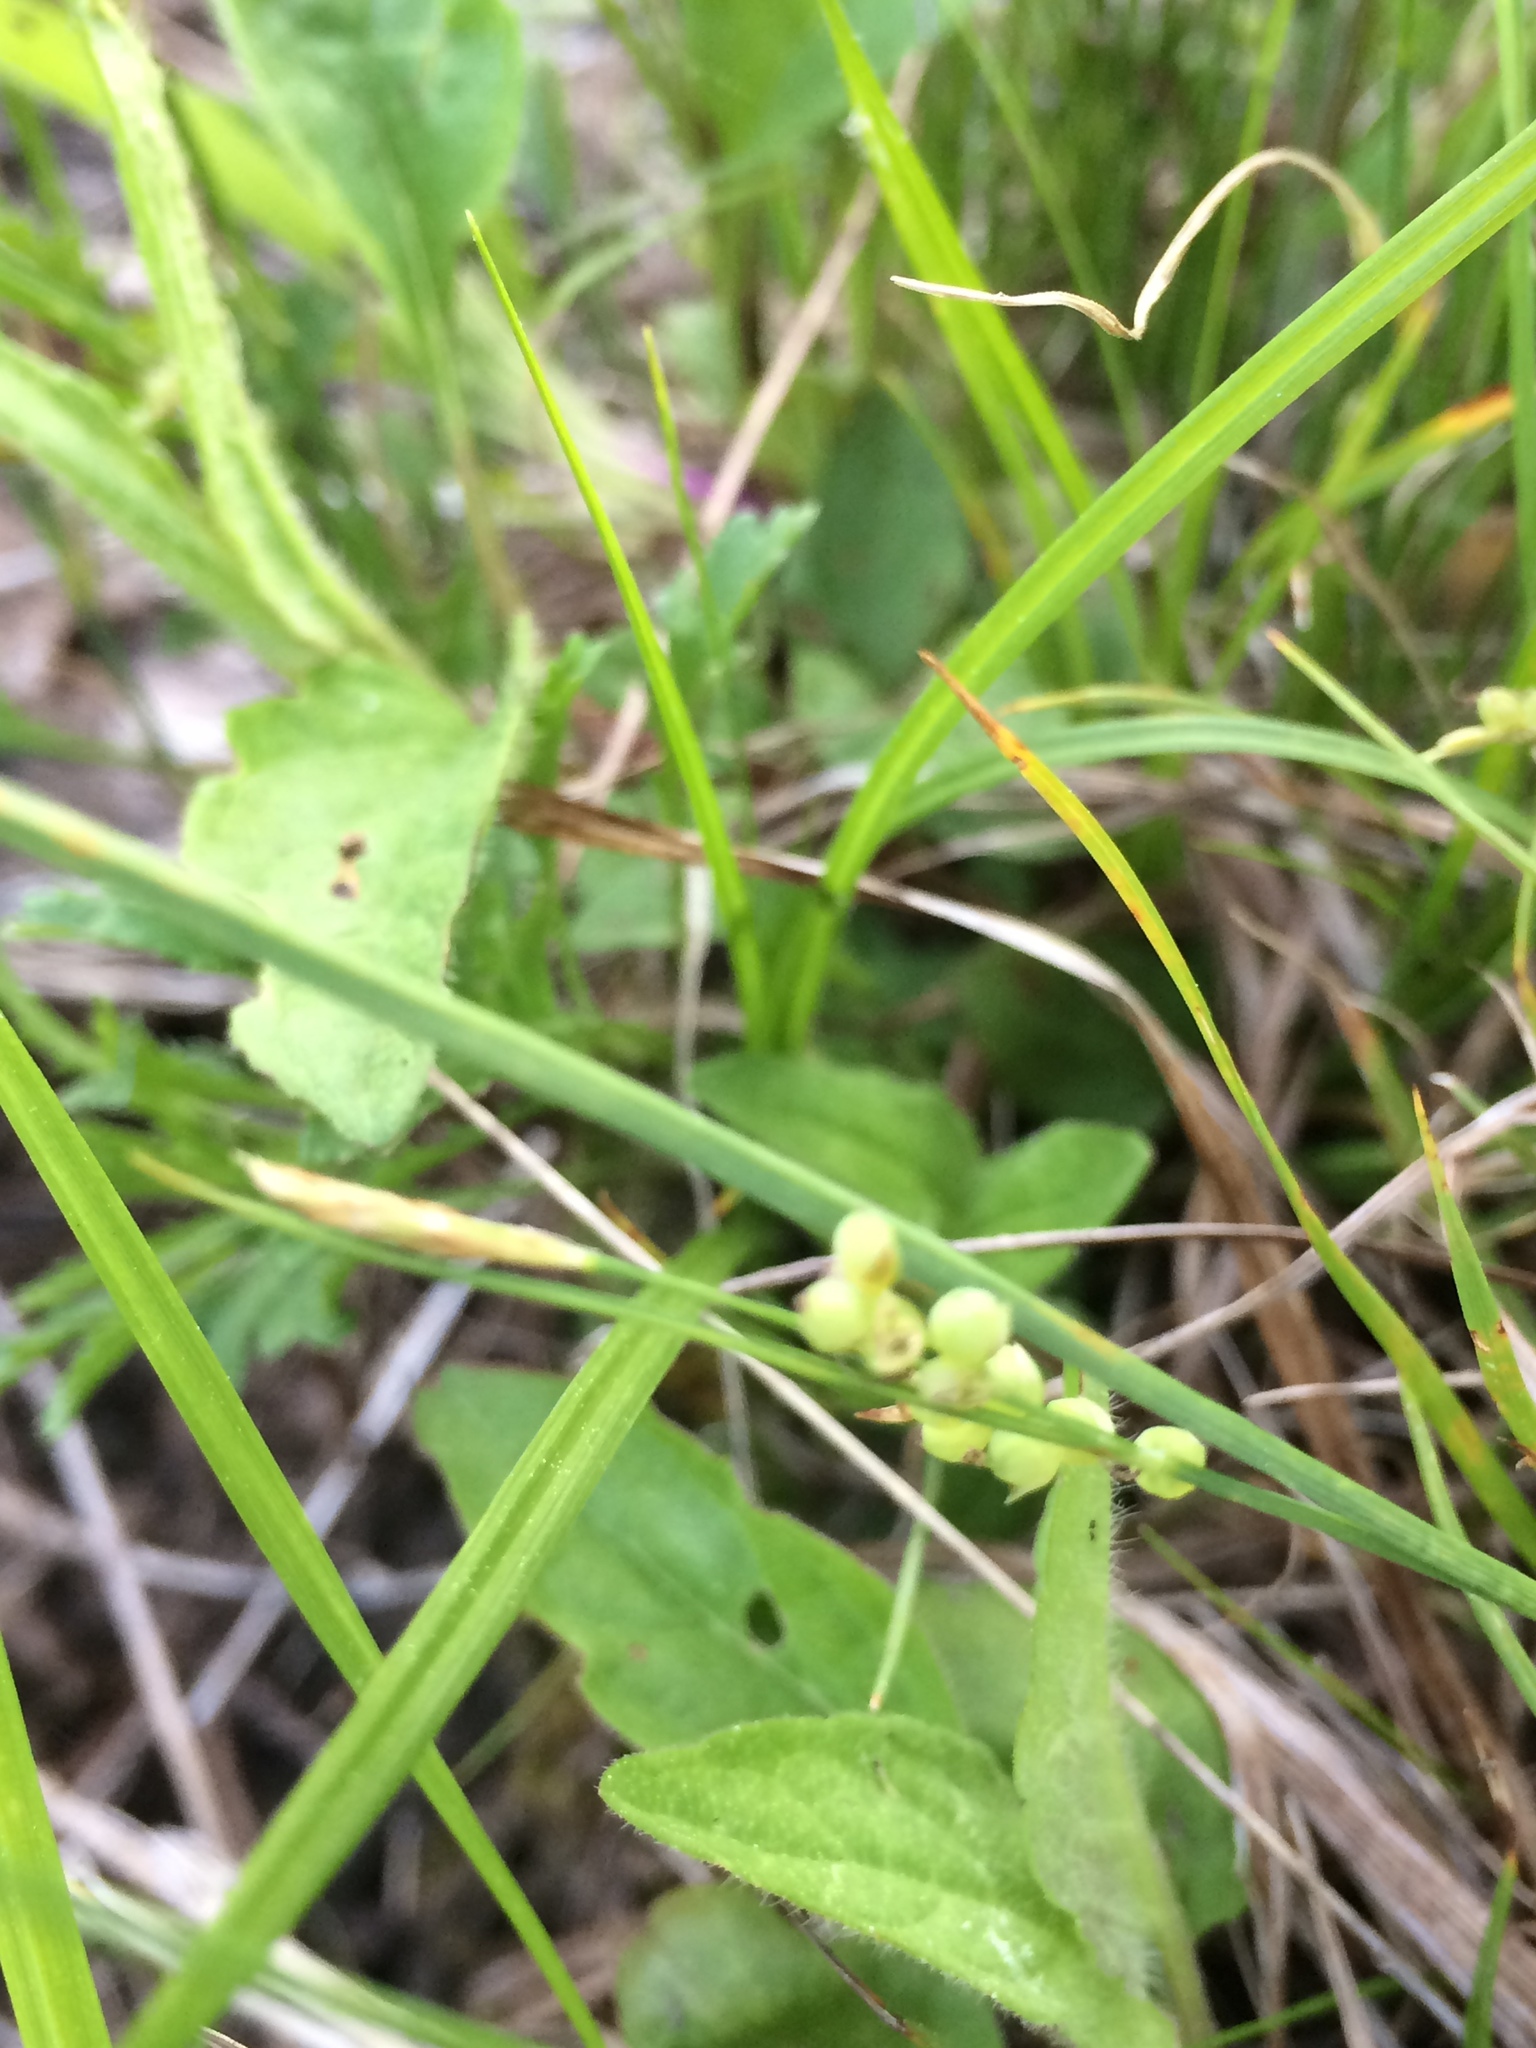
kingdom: Plantae
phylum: Tracheophyta
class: Liliopsida
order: Poales
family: Cyperaceae
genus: Carex
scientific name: Carex aurea
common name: Golden sedge
